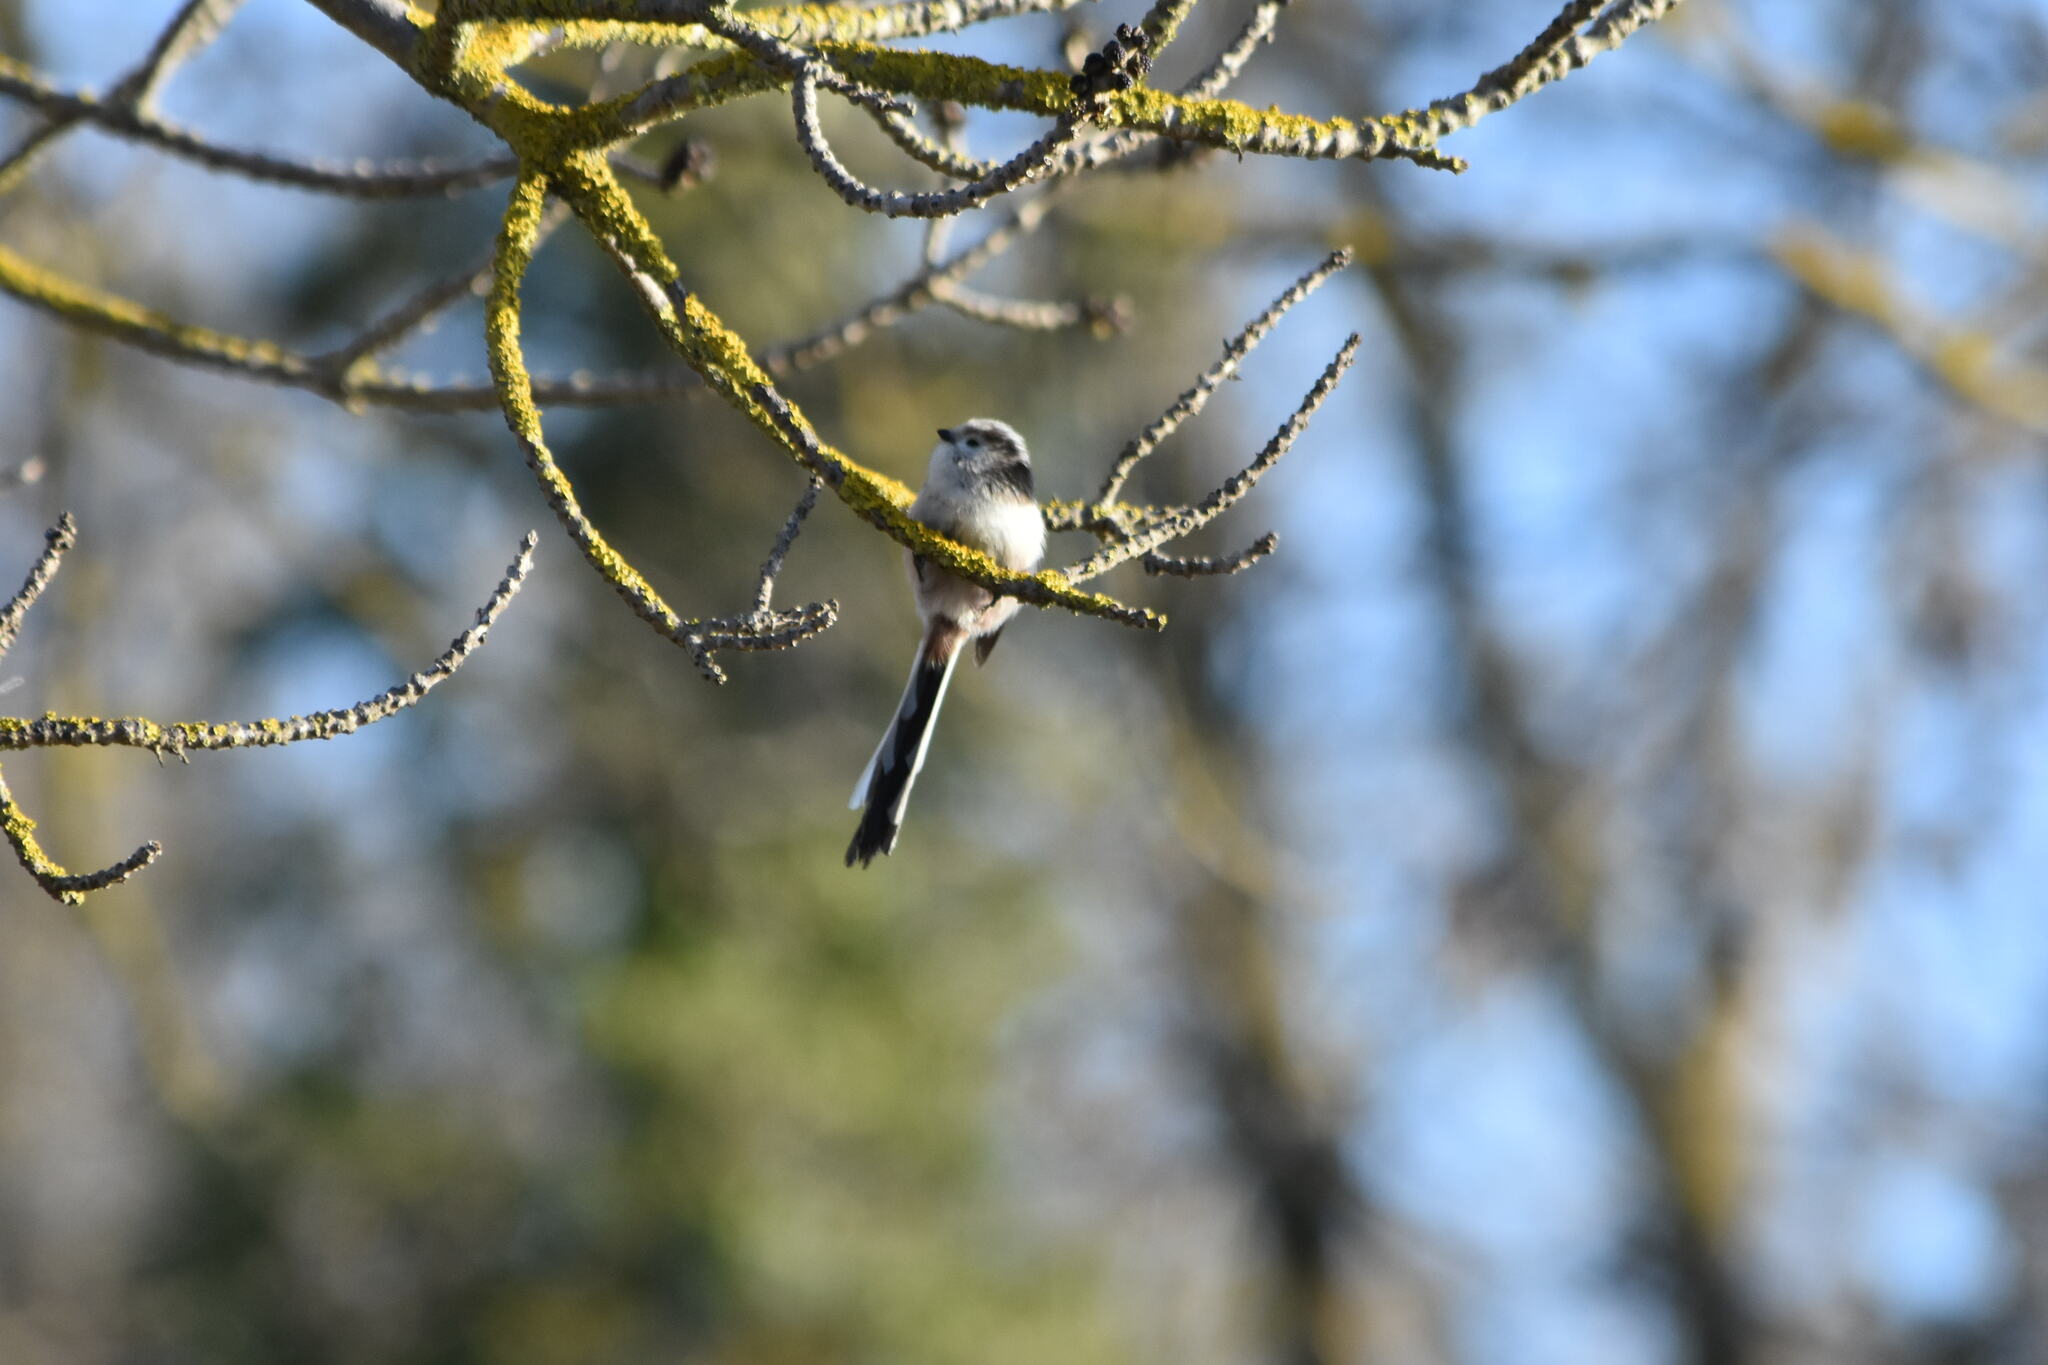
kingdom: Animalia
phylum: Chordata
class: Aves
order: Passeriformes
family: Aegithalidae
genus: Aegithalos
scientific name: Aegithalos caudatus
